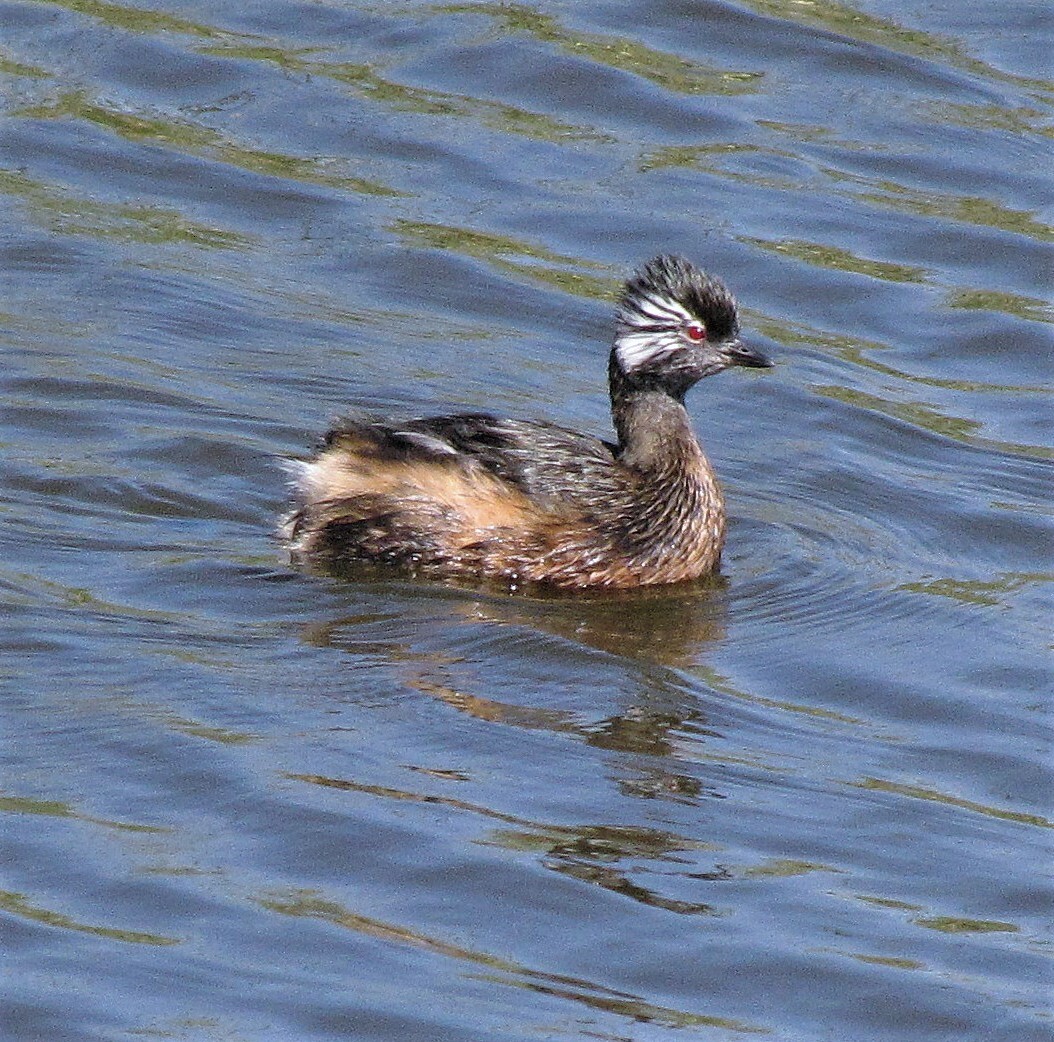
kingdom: Animalia
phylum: Chordata
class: Aves
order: Podicipediformes
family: Podicipedidae
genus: Rollandia
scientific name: Rollandia rolland
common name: White-tufted grebe
